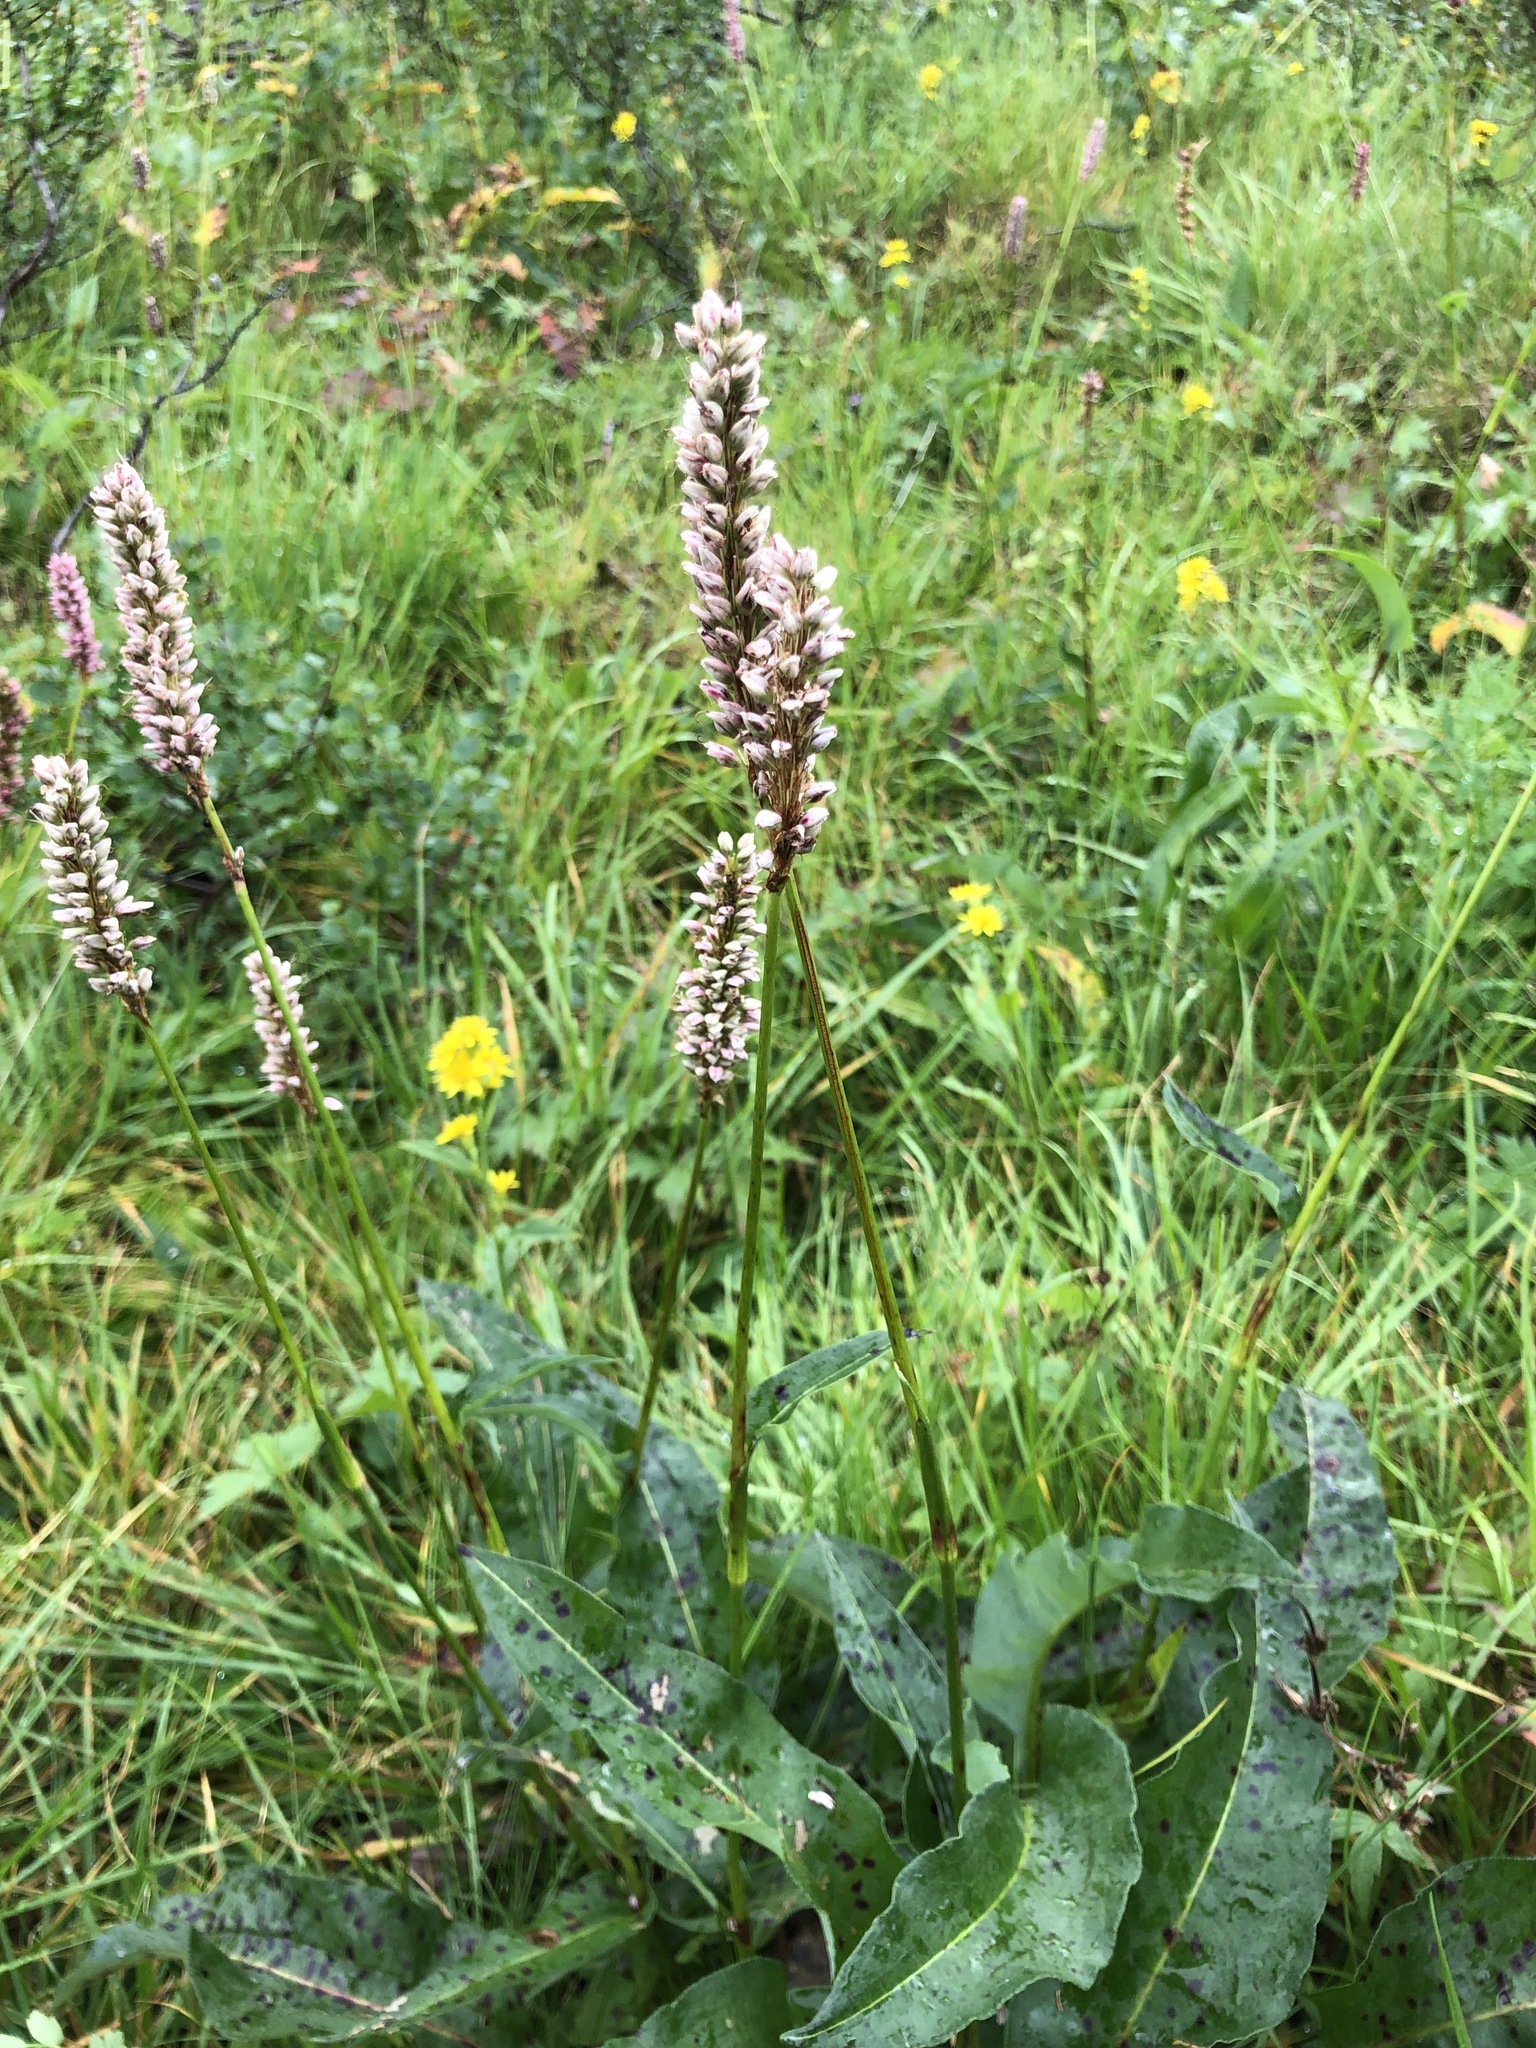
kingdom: Plantae
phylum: Tracheophyta
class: Magnoliopsida
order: Caryophyllales
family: Polygonaceae
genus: Bistorta
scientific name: Bistorta officinalis
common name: Common bistort
